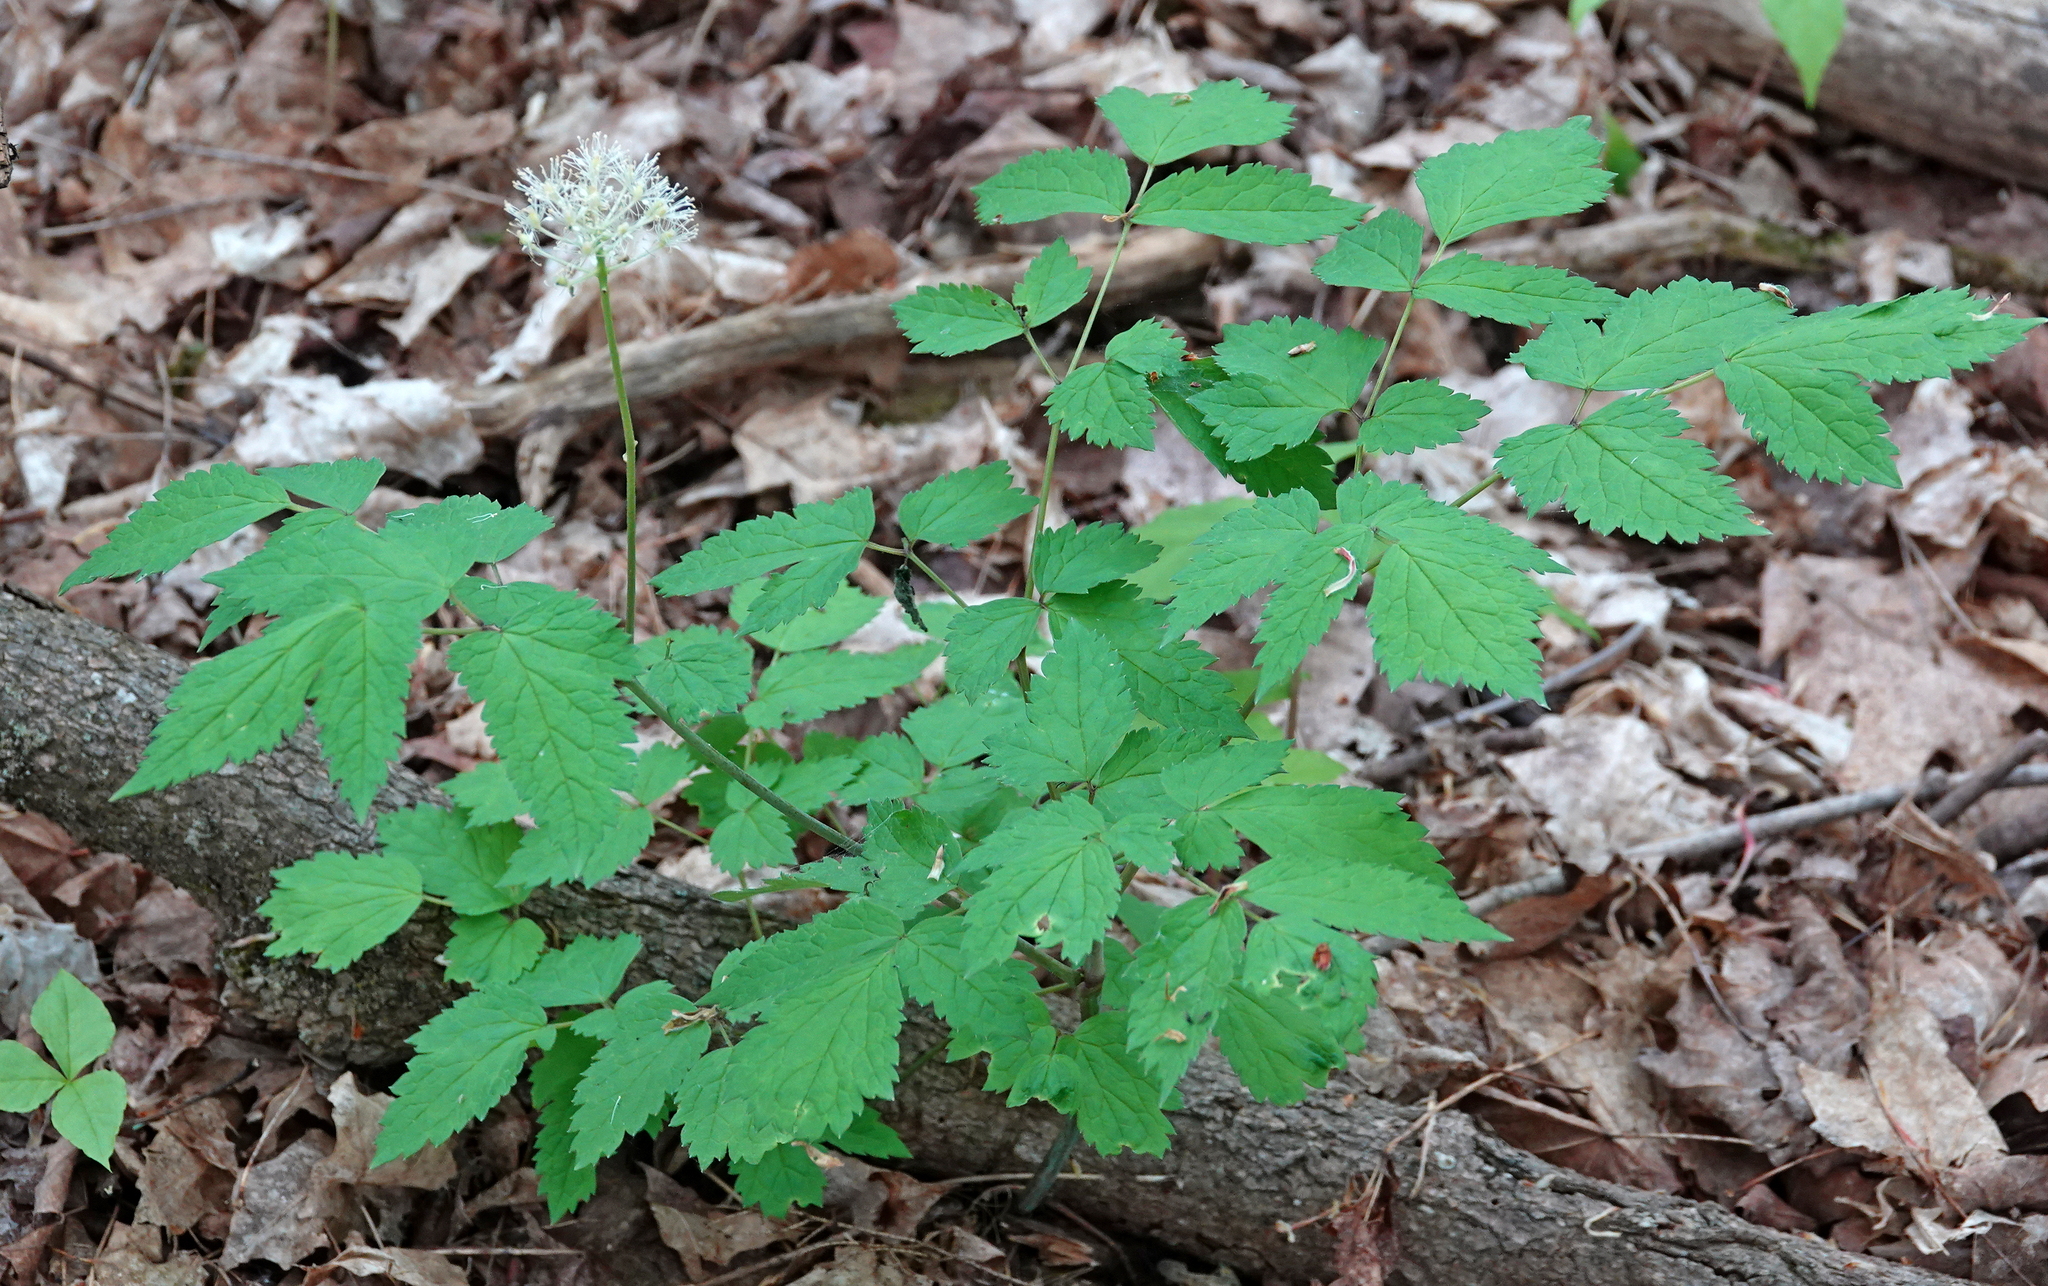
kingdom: Plantae
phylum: Tracheophyta
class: Magnoliopsida
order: Ranunculales
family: Ranunculaceae
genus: Actaea
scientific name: Actaea rubra
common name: Red baneberry
